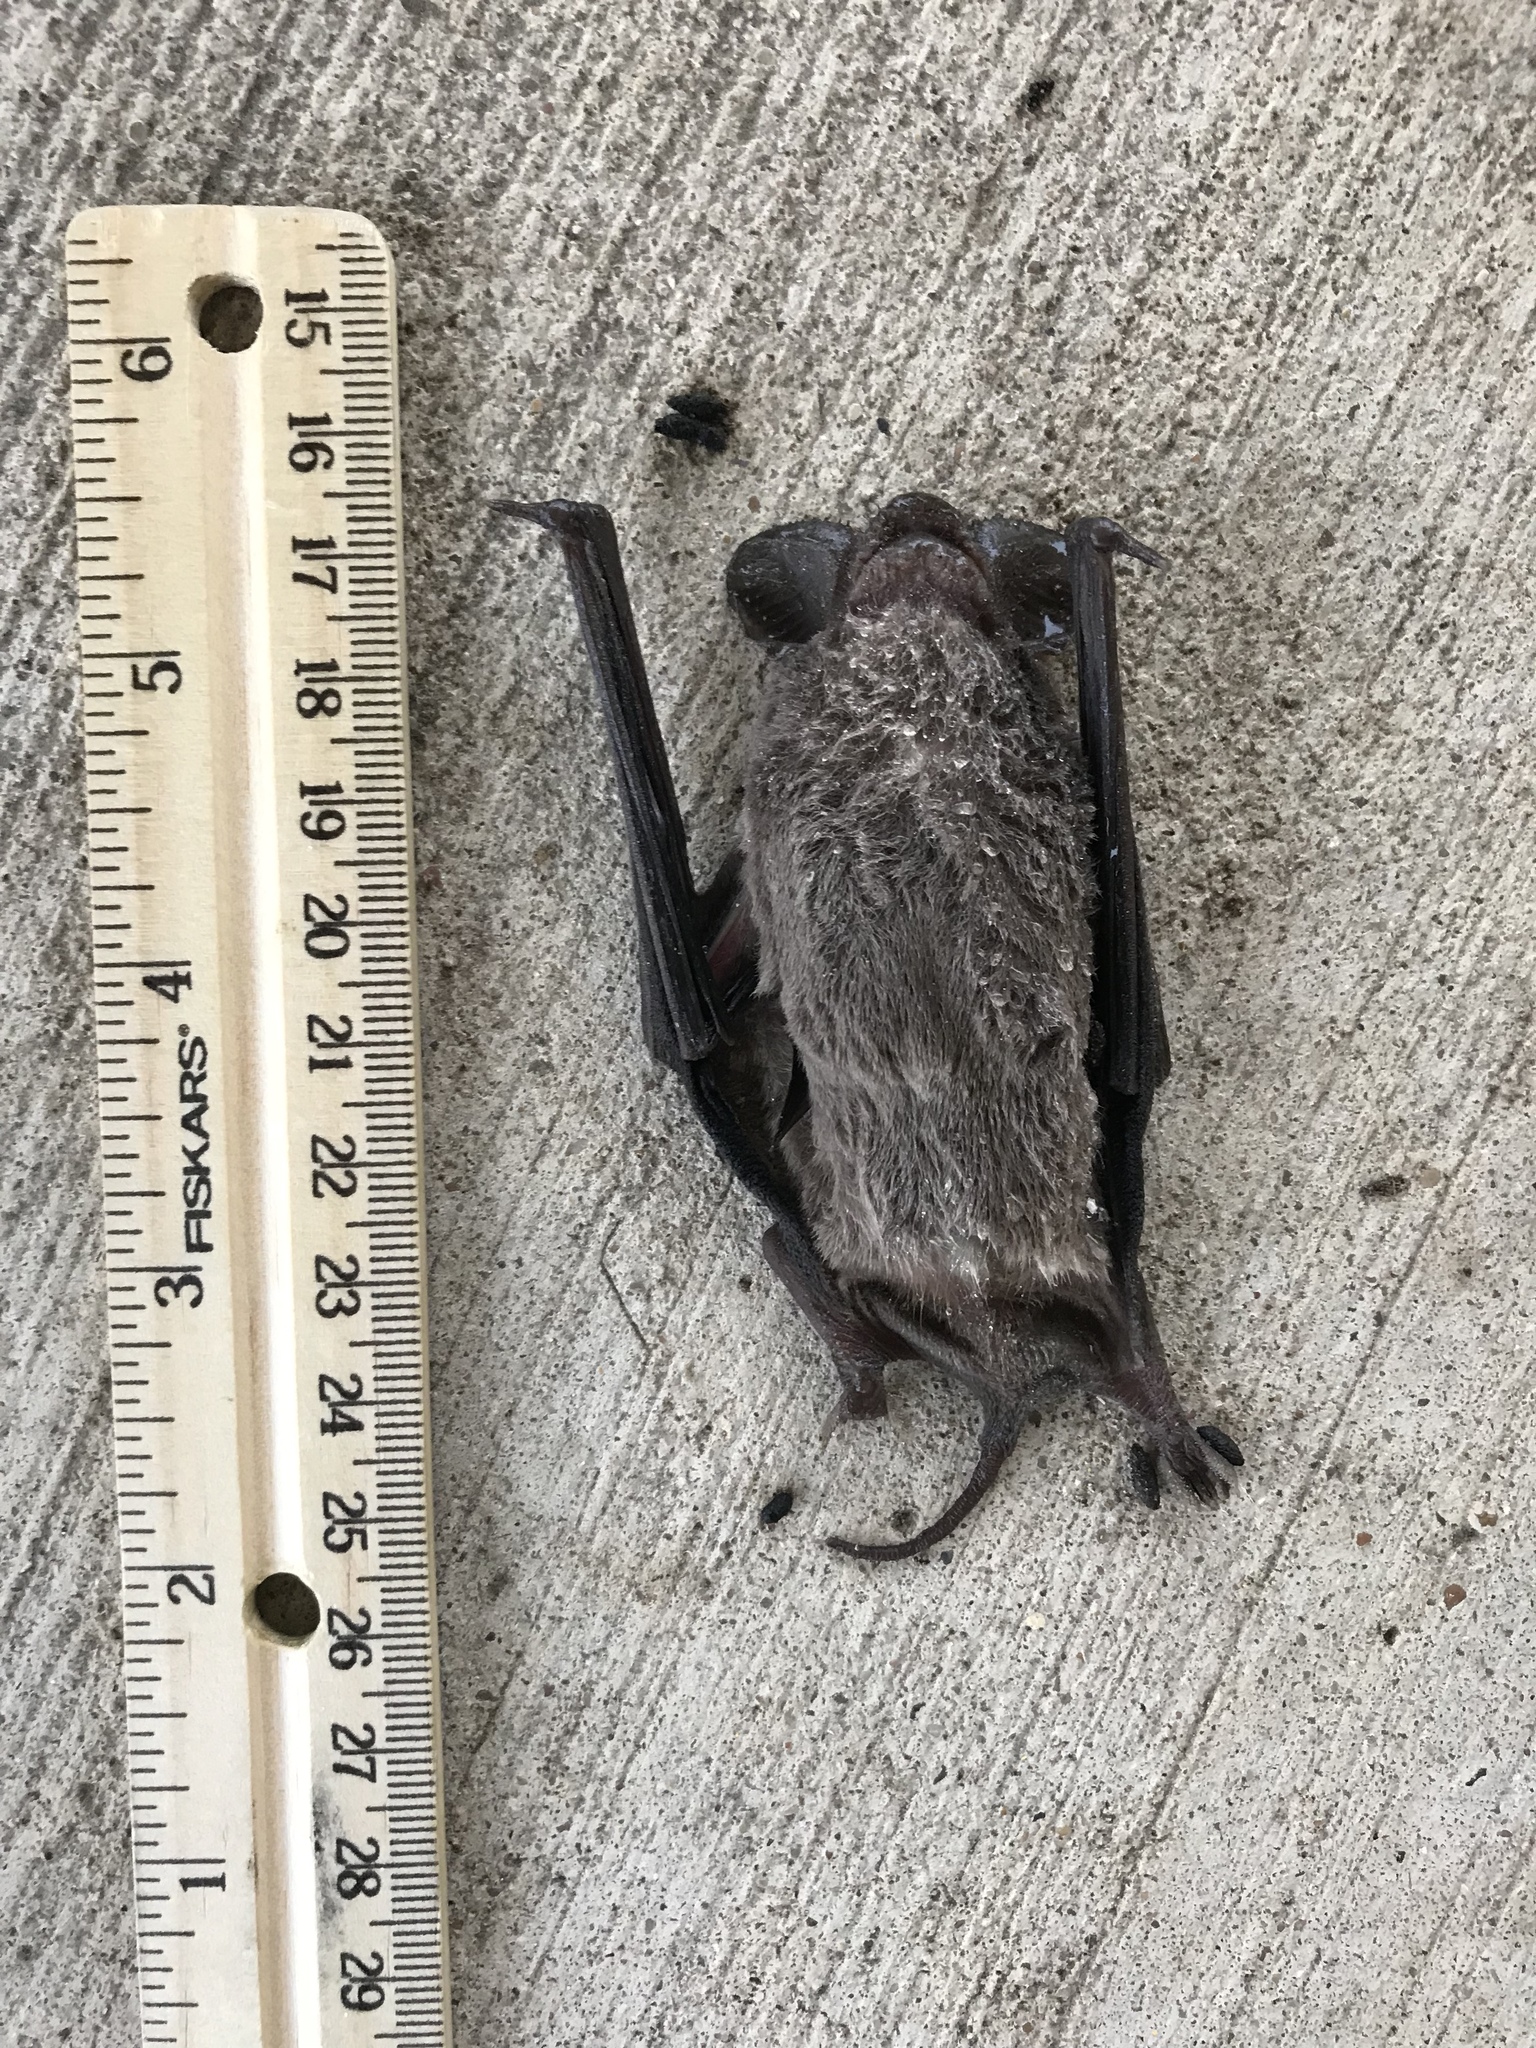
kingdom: Animalia
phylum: Chordata
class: Mammalia
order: Chiroptera
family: Molossidae
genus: Tadarida
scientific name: Tadarida brasiliensis
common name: Mexican free-tailed bat
